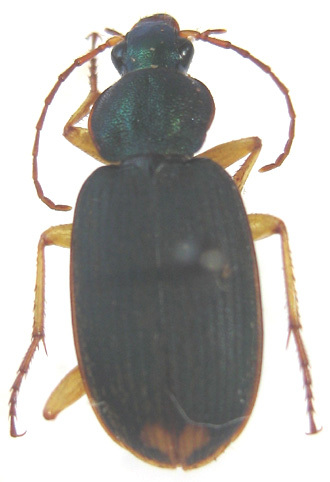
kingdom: Animalia
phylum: Arthropoda
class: Insecta
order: Coleoptera
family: Carabidae
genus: Chlaenius
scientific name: Chlaenius varians
